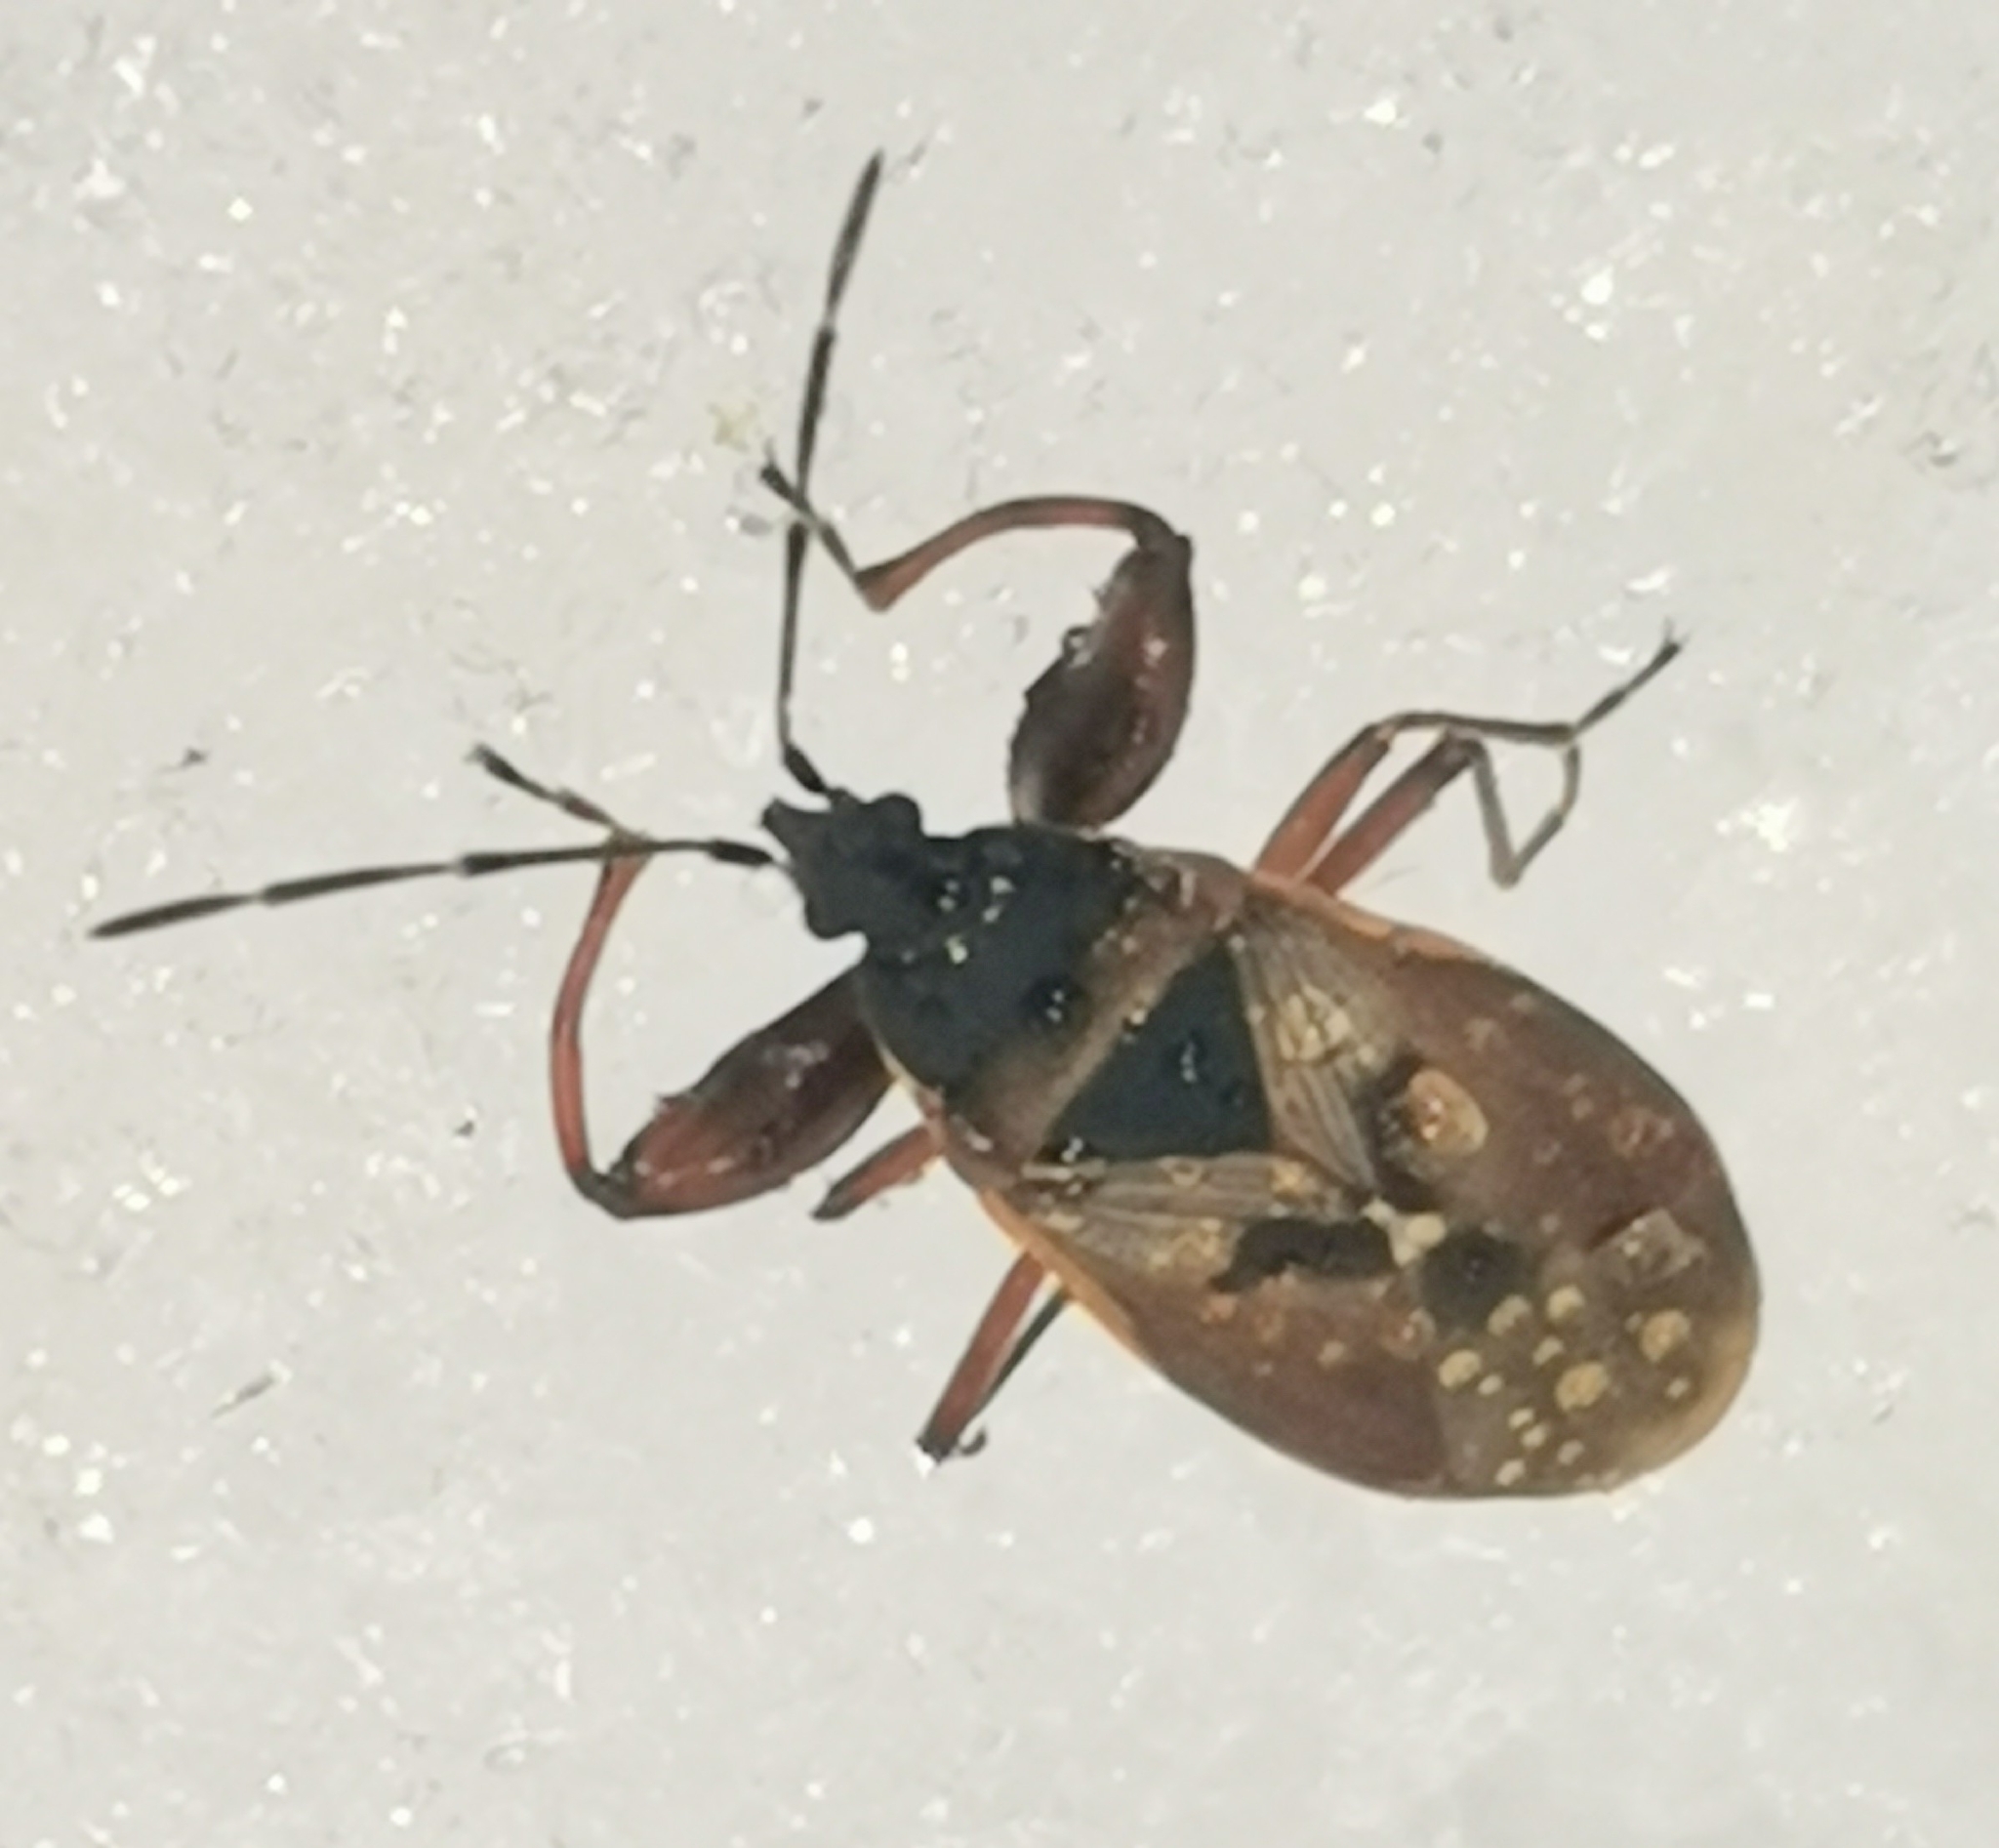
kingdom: Animalia
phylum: Arthropoda
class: Insecta
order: Hemiptera
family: Rhyparochromidae
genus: Gastrodes
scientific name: Gastrodes abietum
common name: Spruce cone bug
